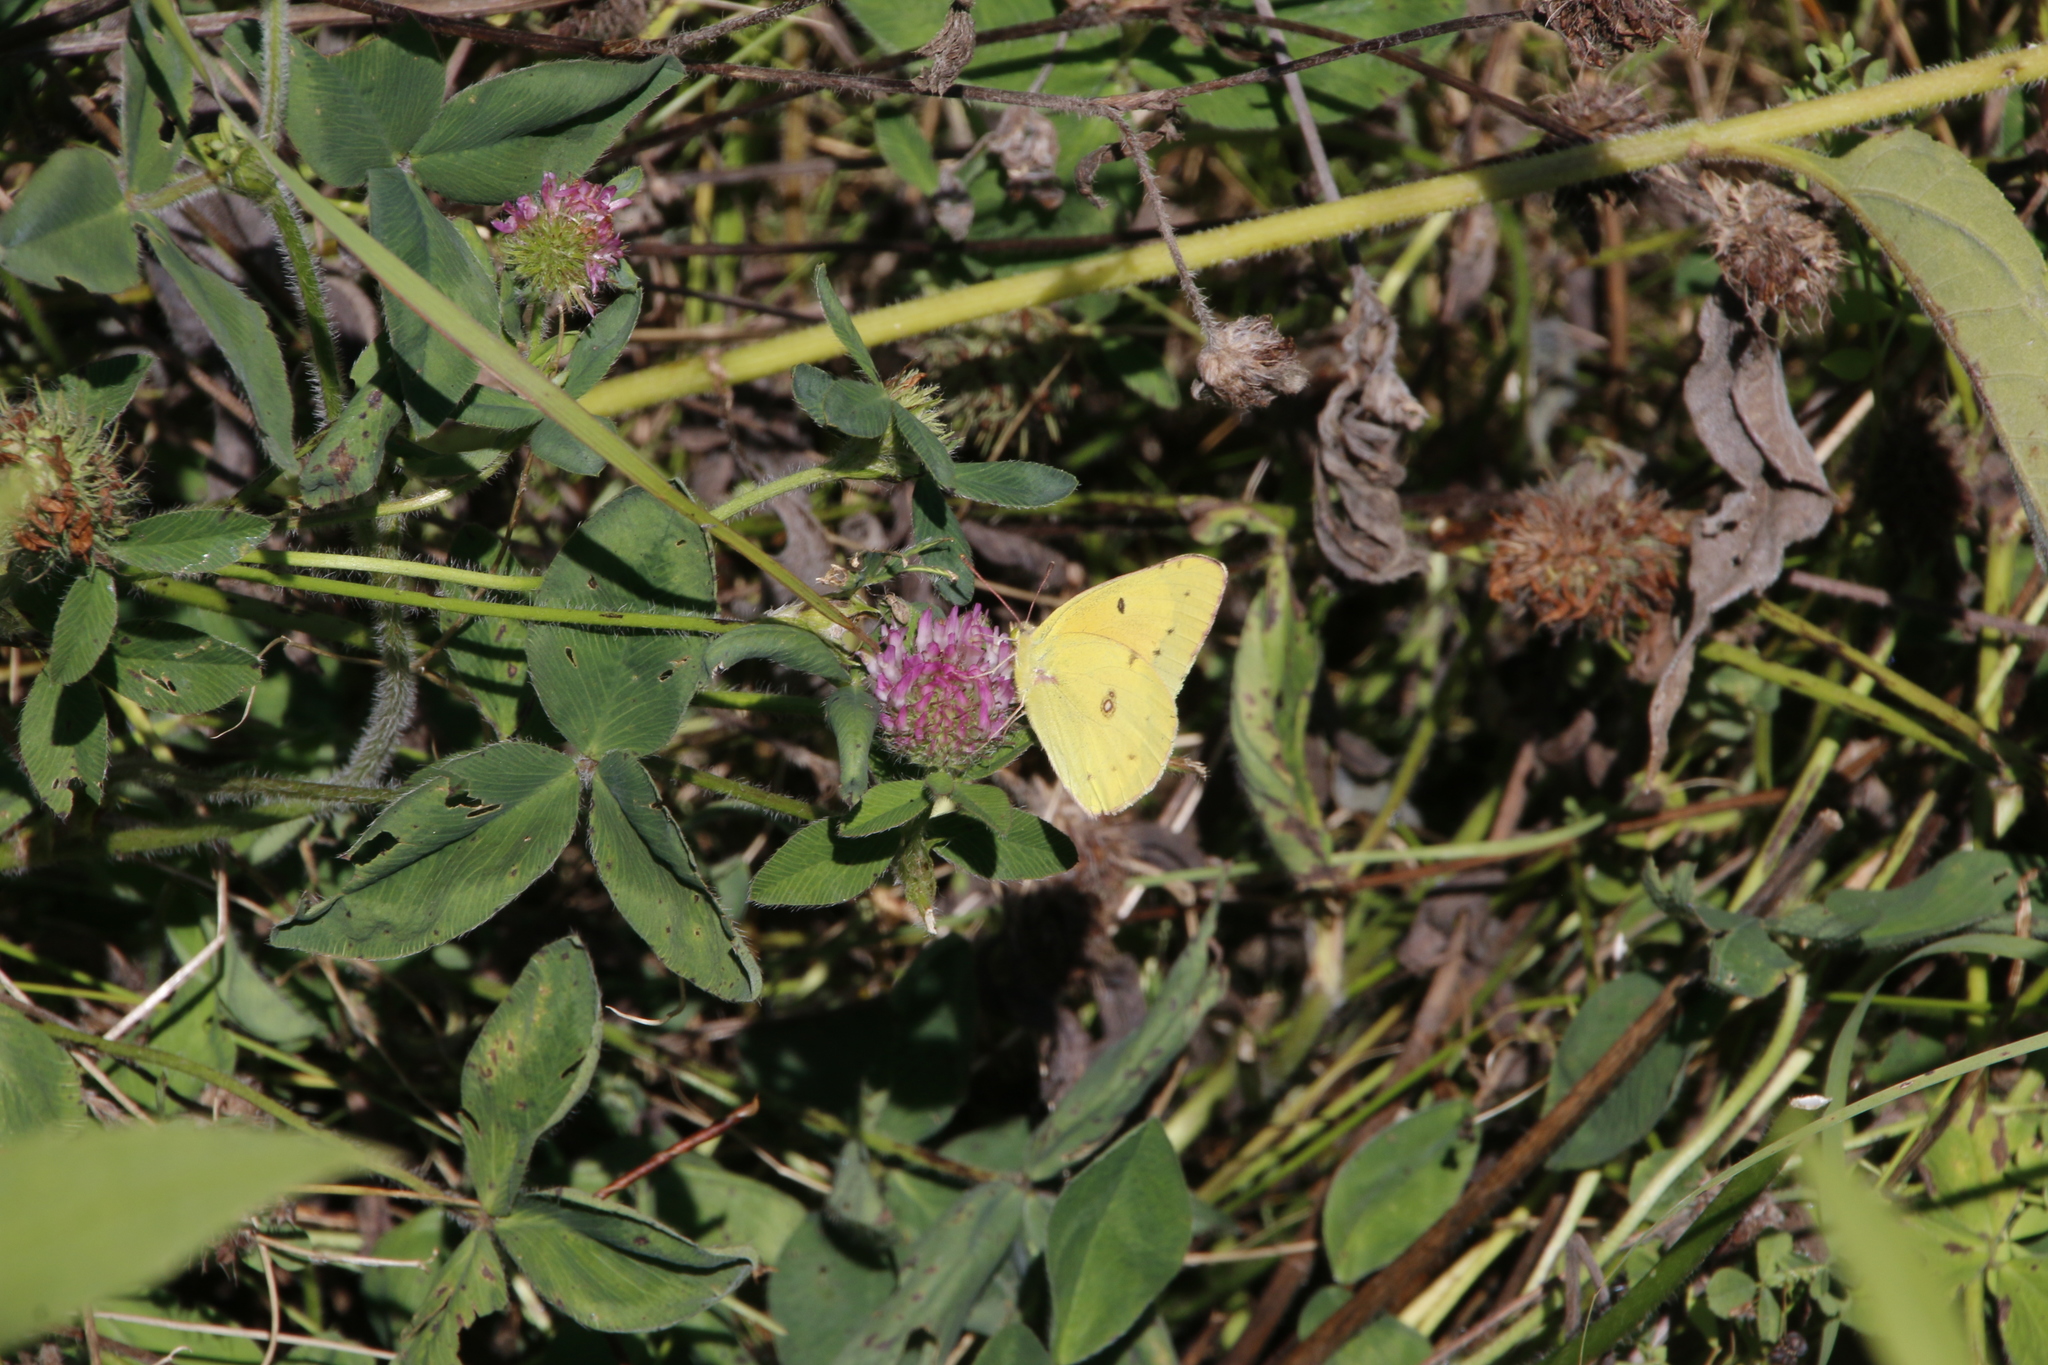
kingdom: Animalia
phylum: Arthropoda
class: Insecta
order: Lepidoptera
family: Pieridae
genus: Colias
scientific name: Colias eurytheme
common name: Alfalfa butterfly
